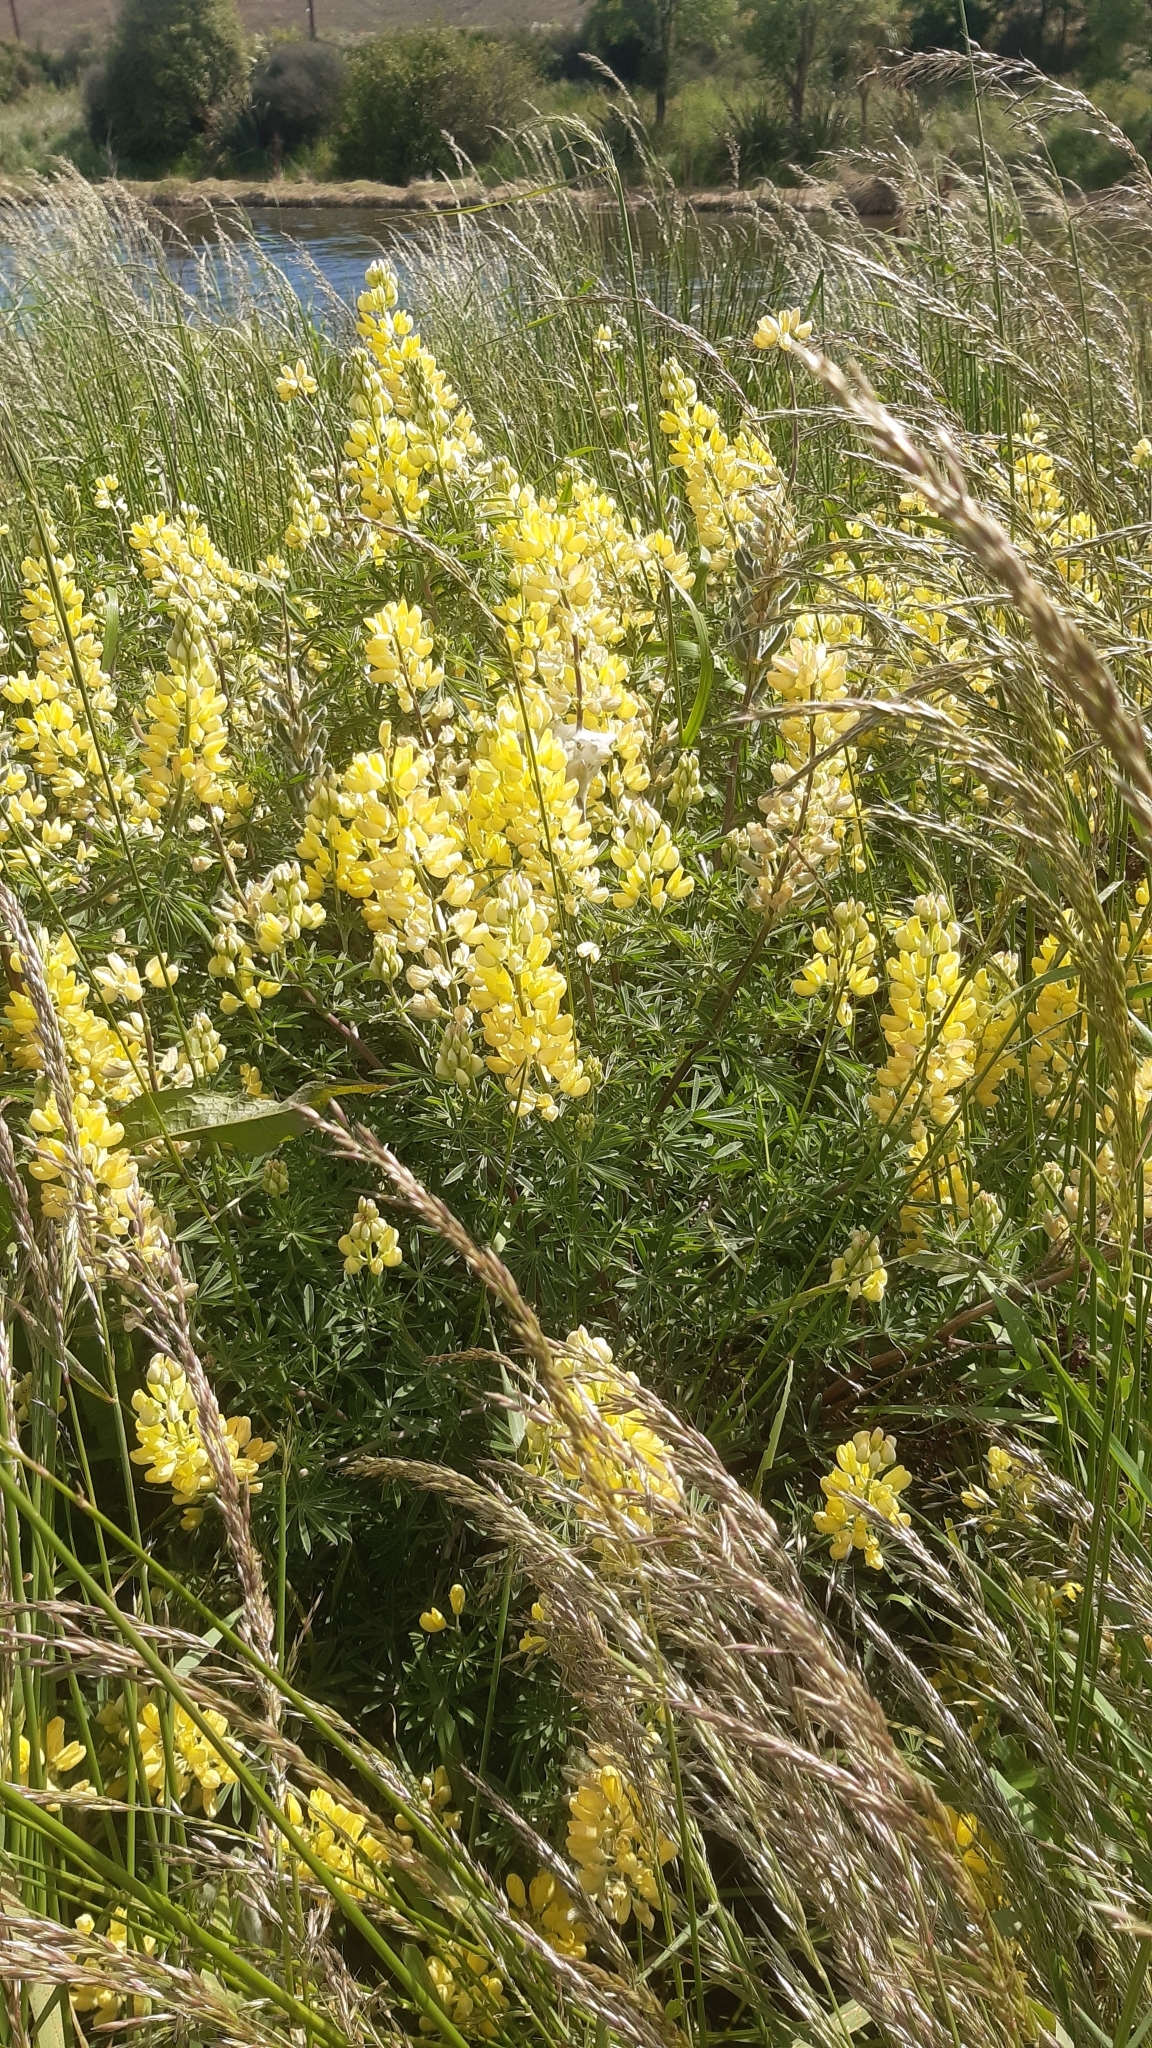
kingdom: Plantae
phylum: Tracheophyta
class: Magnoliopsida
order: Fabales
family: Fabaceae
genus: Lupinus
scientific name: Lupinus arboreus
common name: Yellow bush lupine
